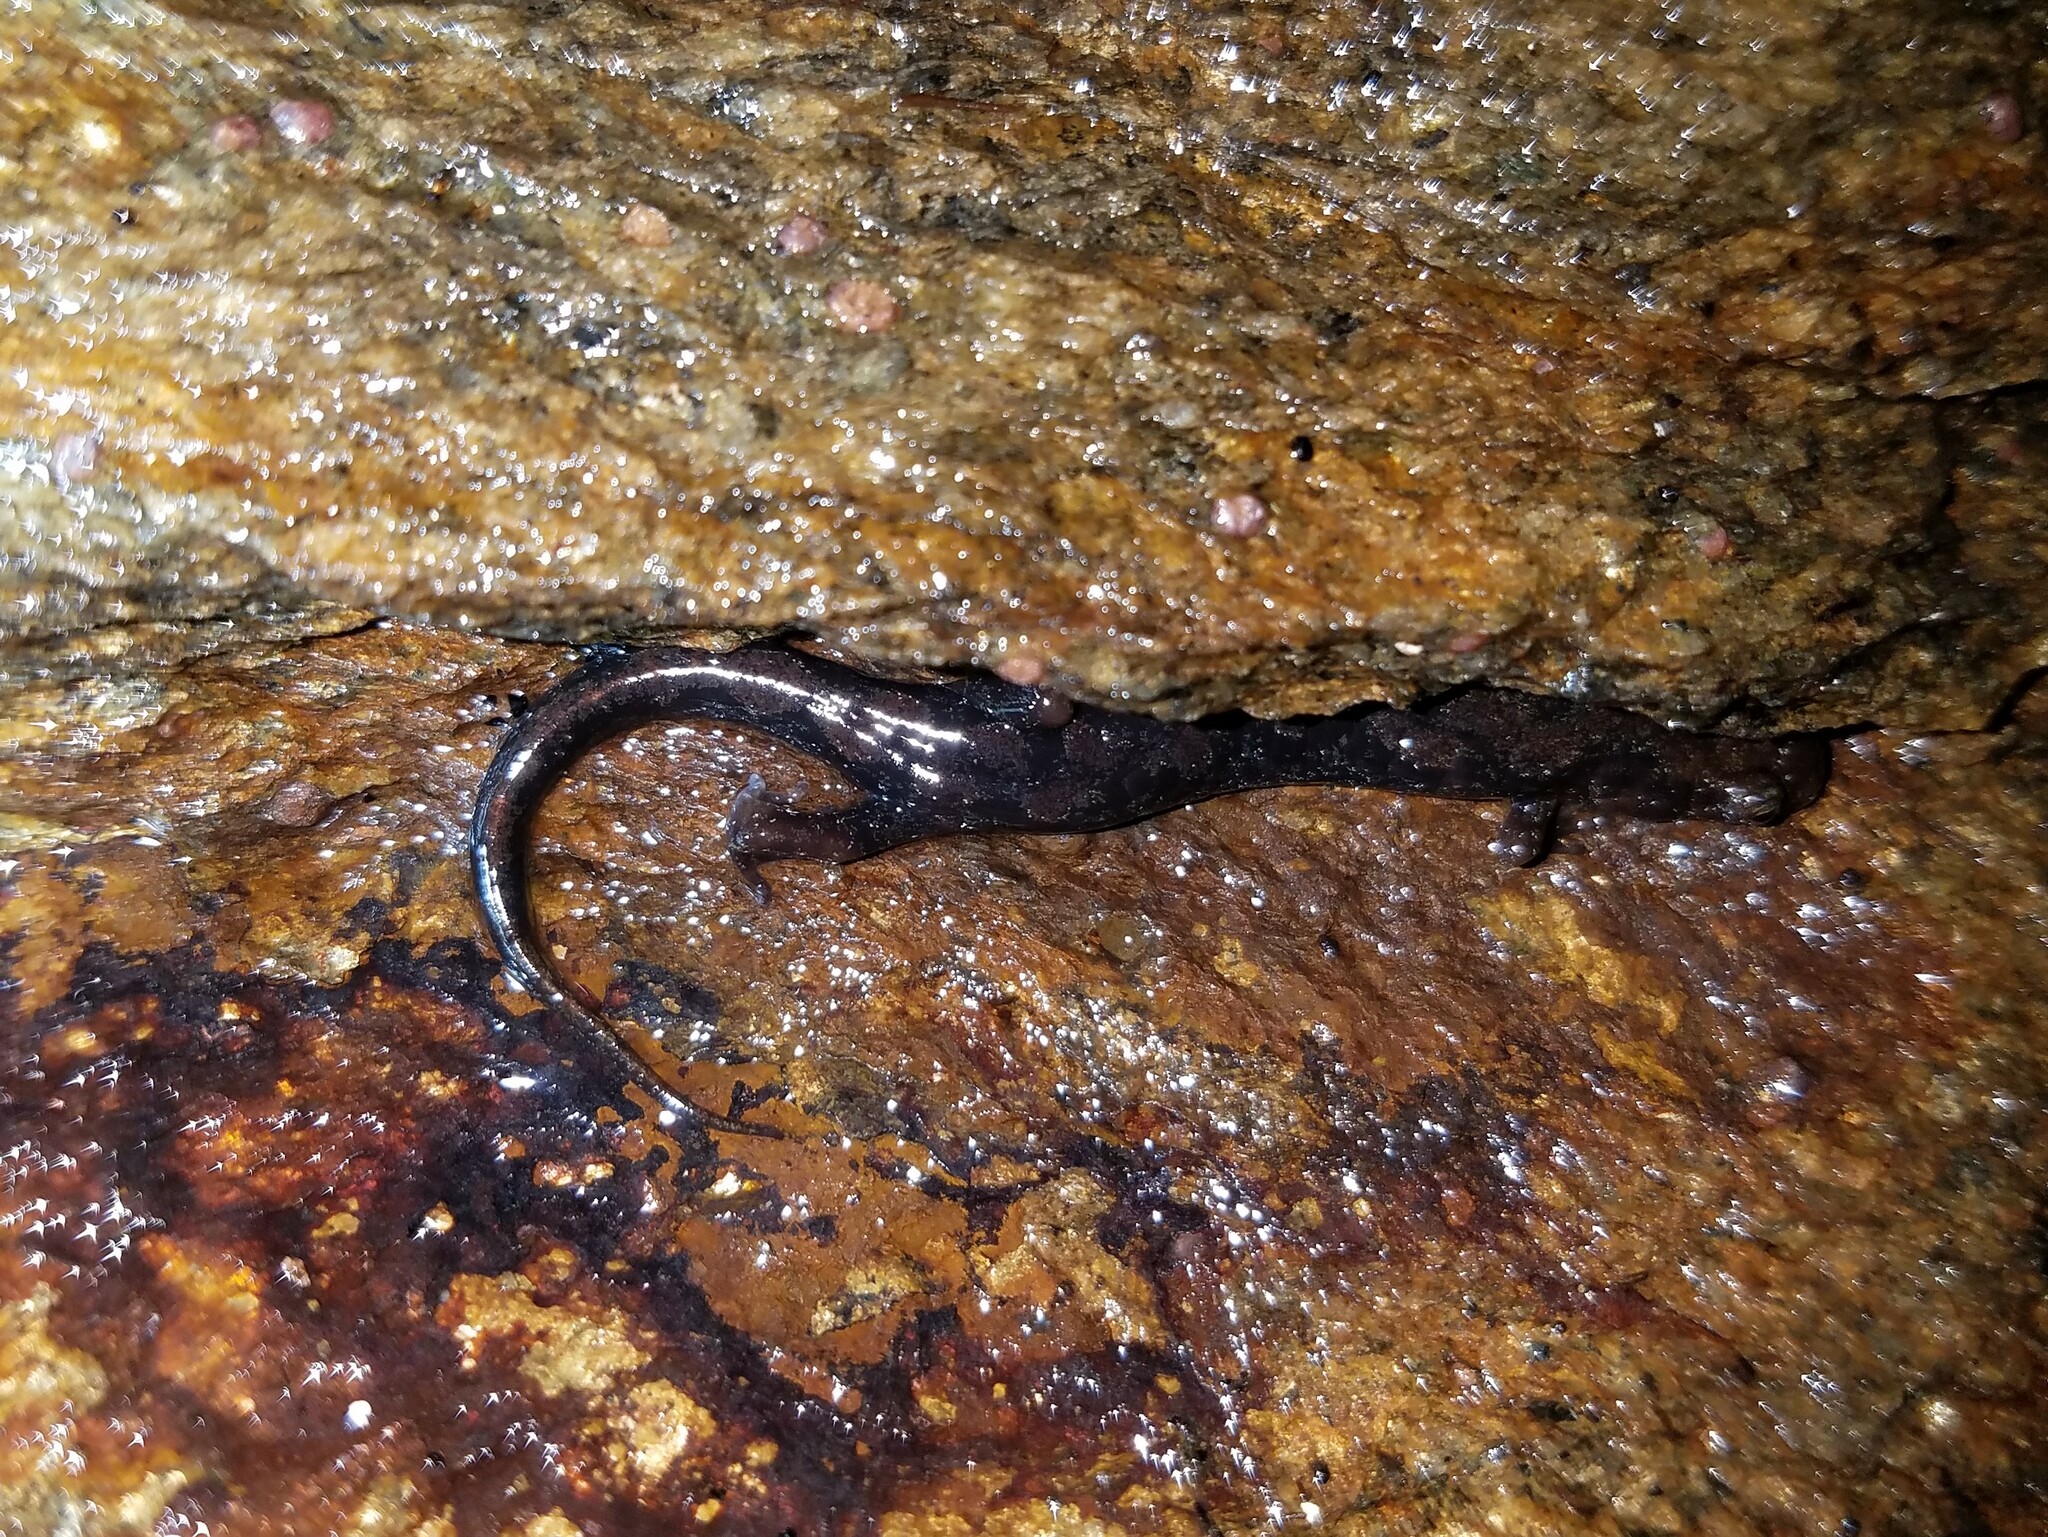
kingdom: Animalia
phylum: Chordata
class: Amphibia
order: Caudata
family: Plethodontidae
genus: Desmognathus
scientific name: Desmognathus ocoee
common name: Ocoee salamander
